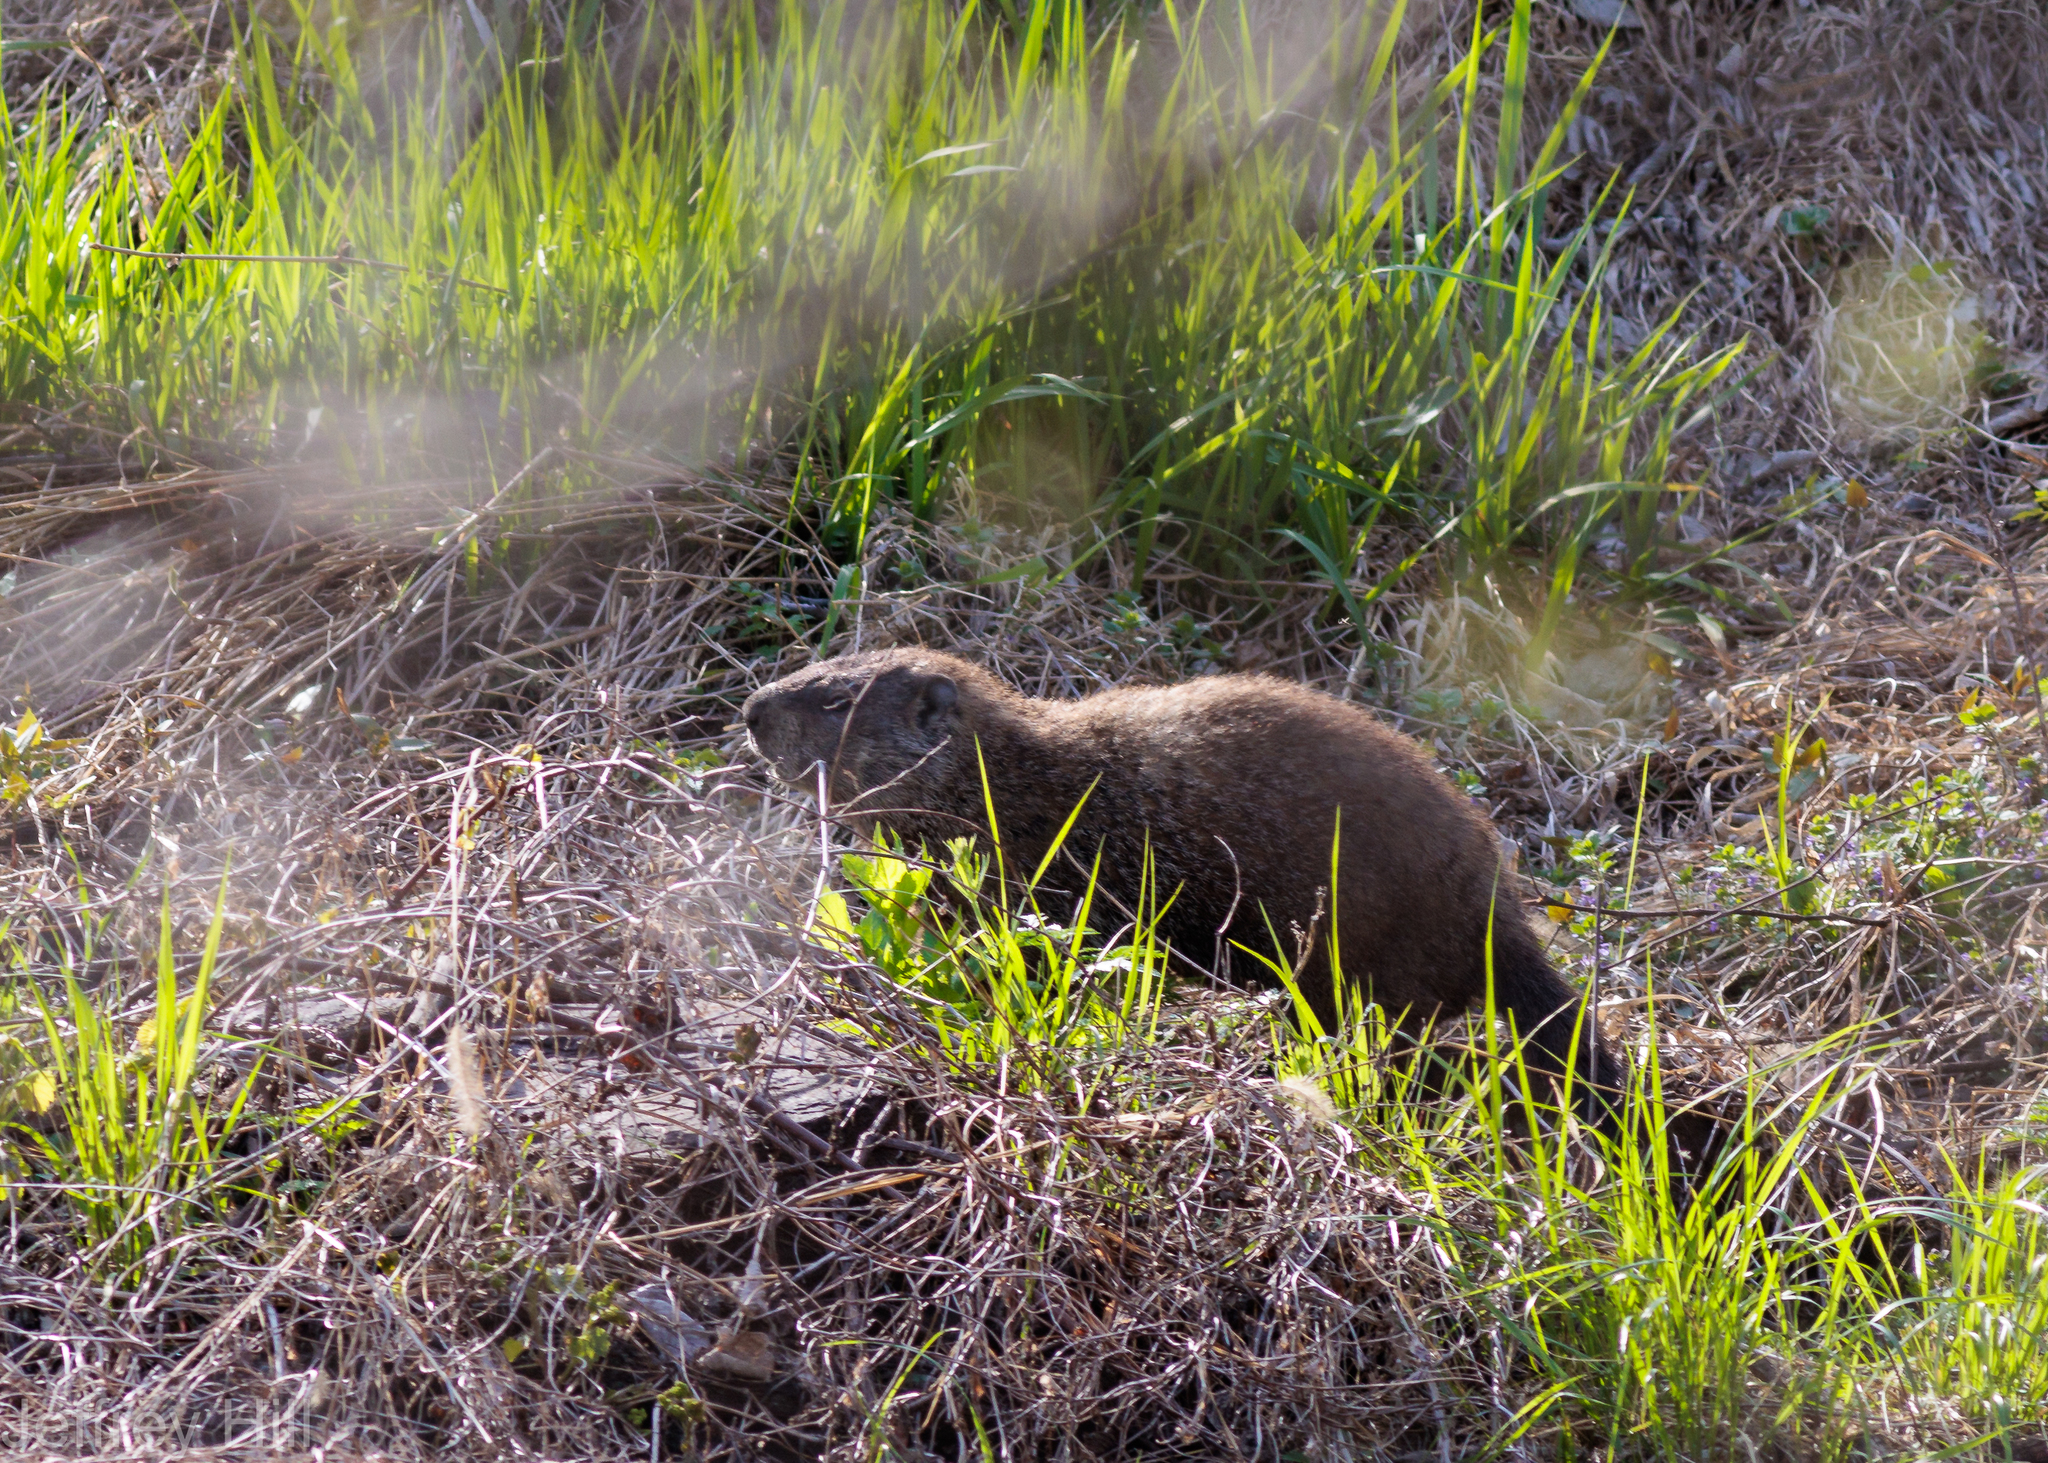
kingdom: Animalia
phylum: Chordata
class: Mammalia
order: Rodentia
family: Sciuridae
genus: Marmota
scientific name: Marmota monax
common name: Groundhog
